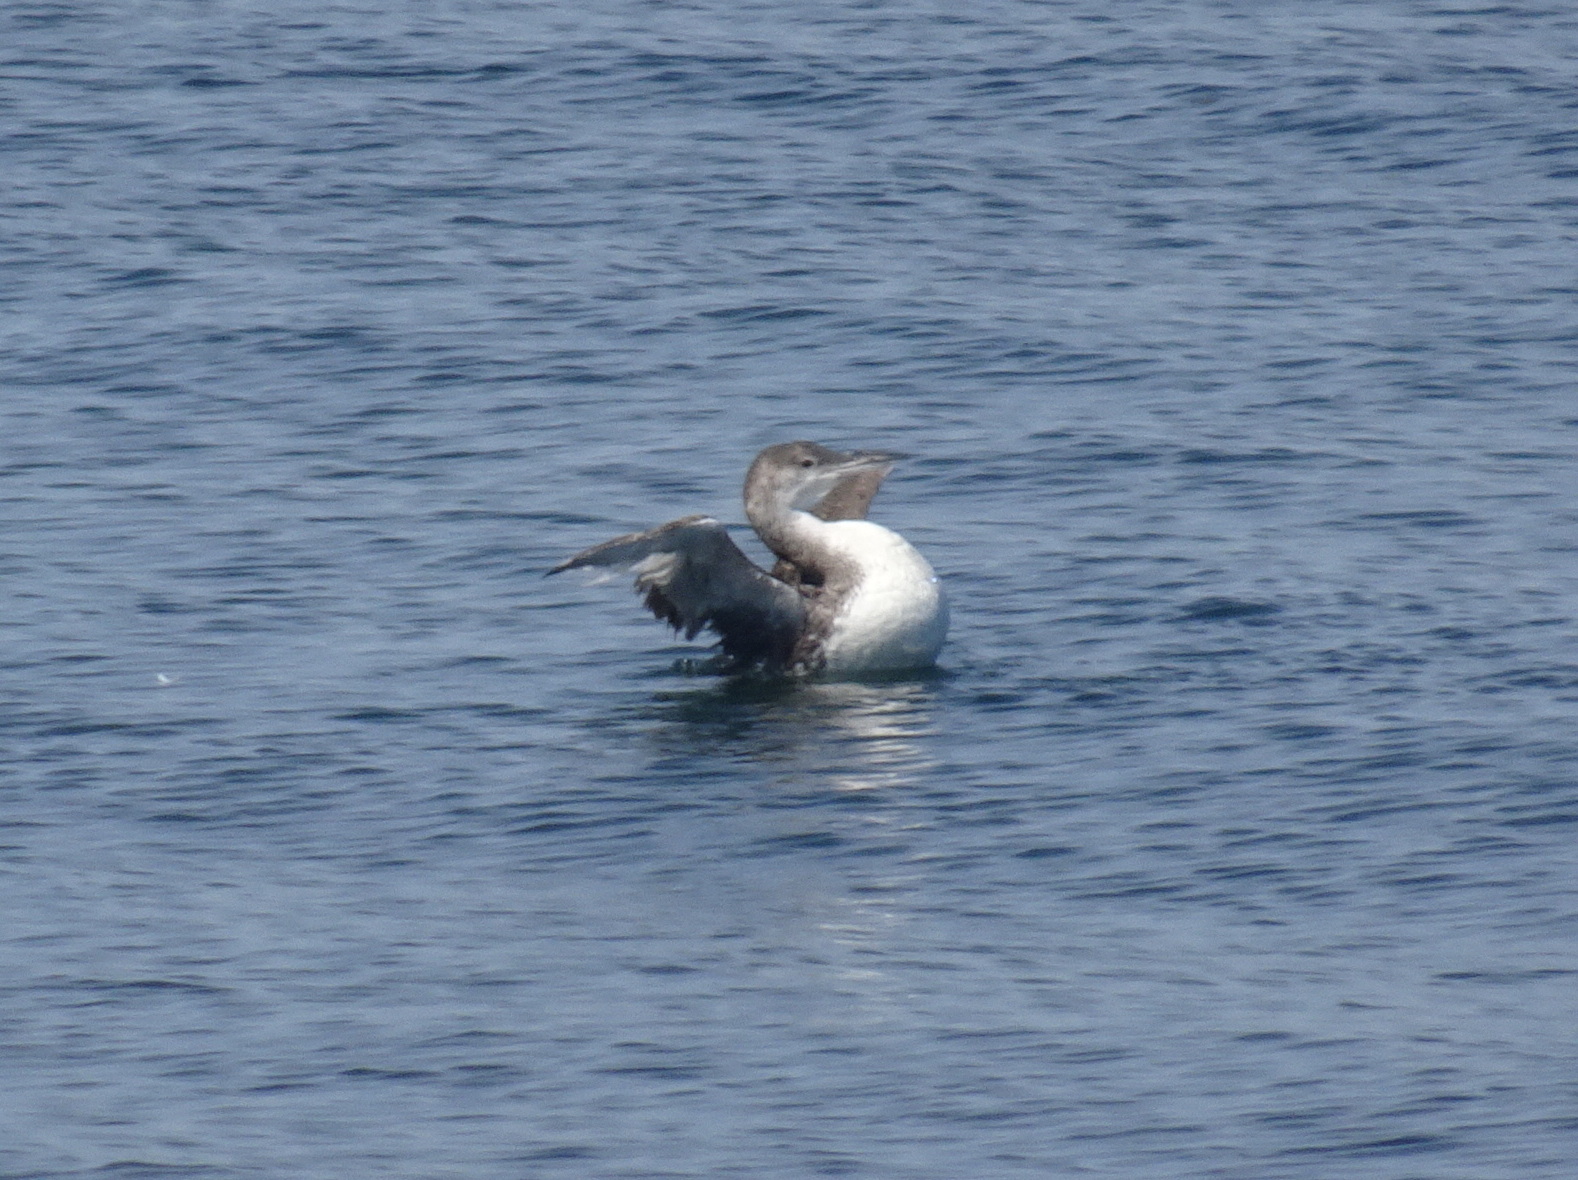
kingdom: Animalia
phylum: Chordata
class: Aves
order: Gaviiformes
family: Gaviidae
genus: Gavia
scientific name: Gavia immer
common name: Common loon
